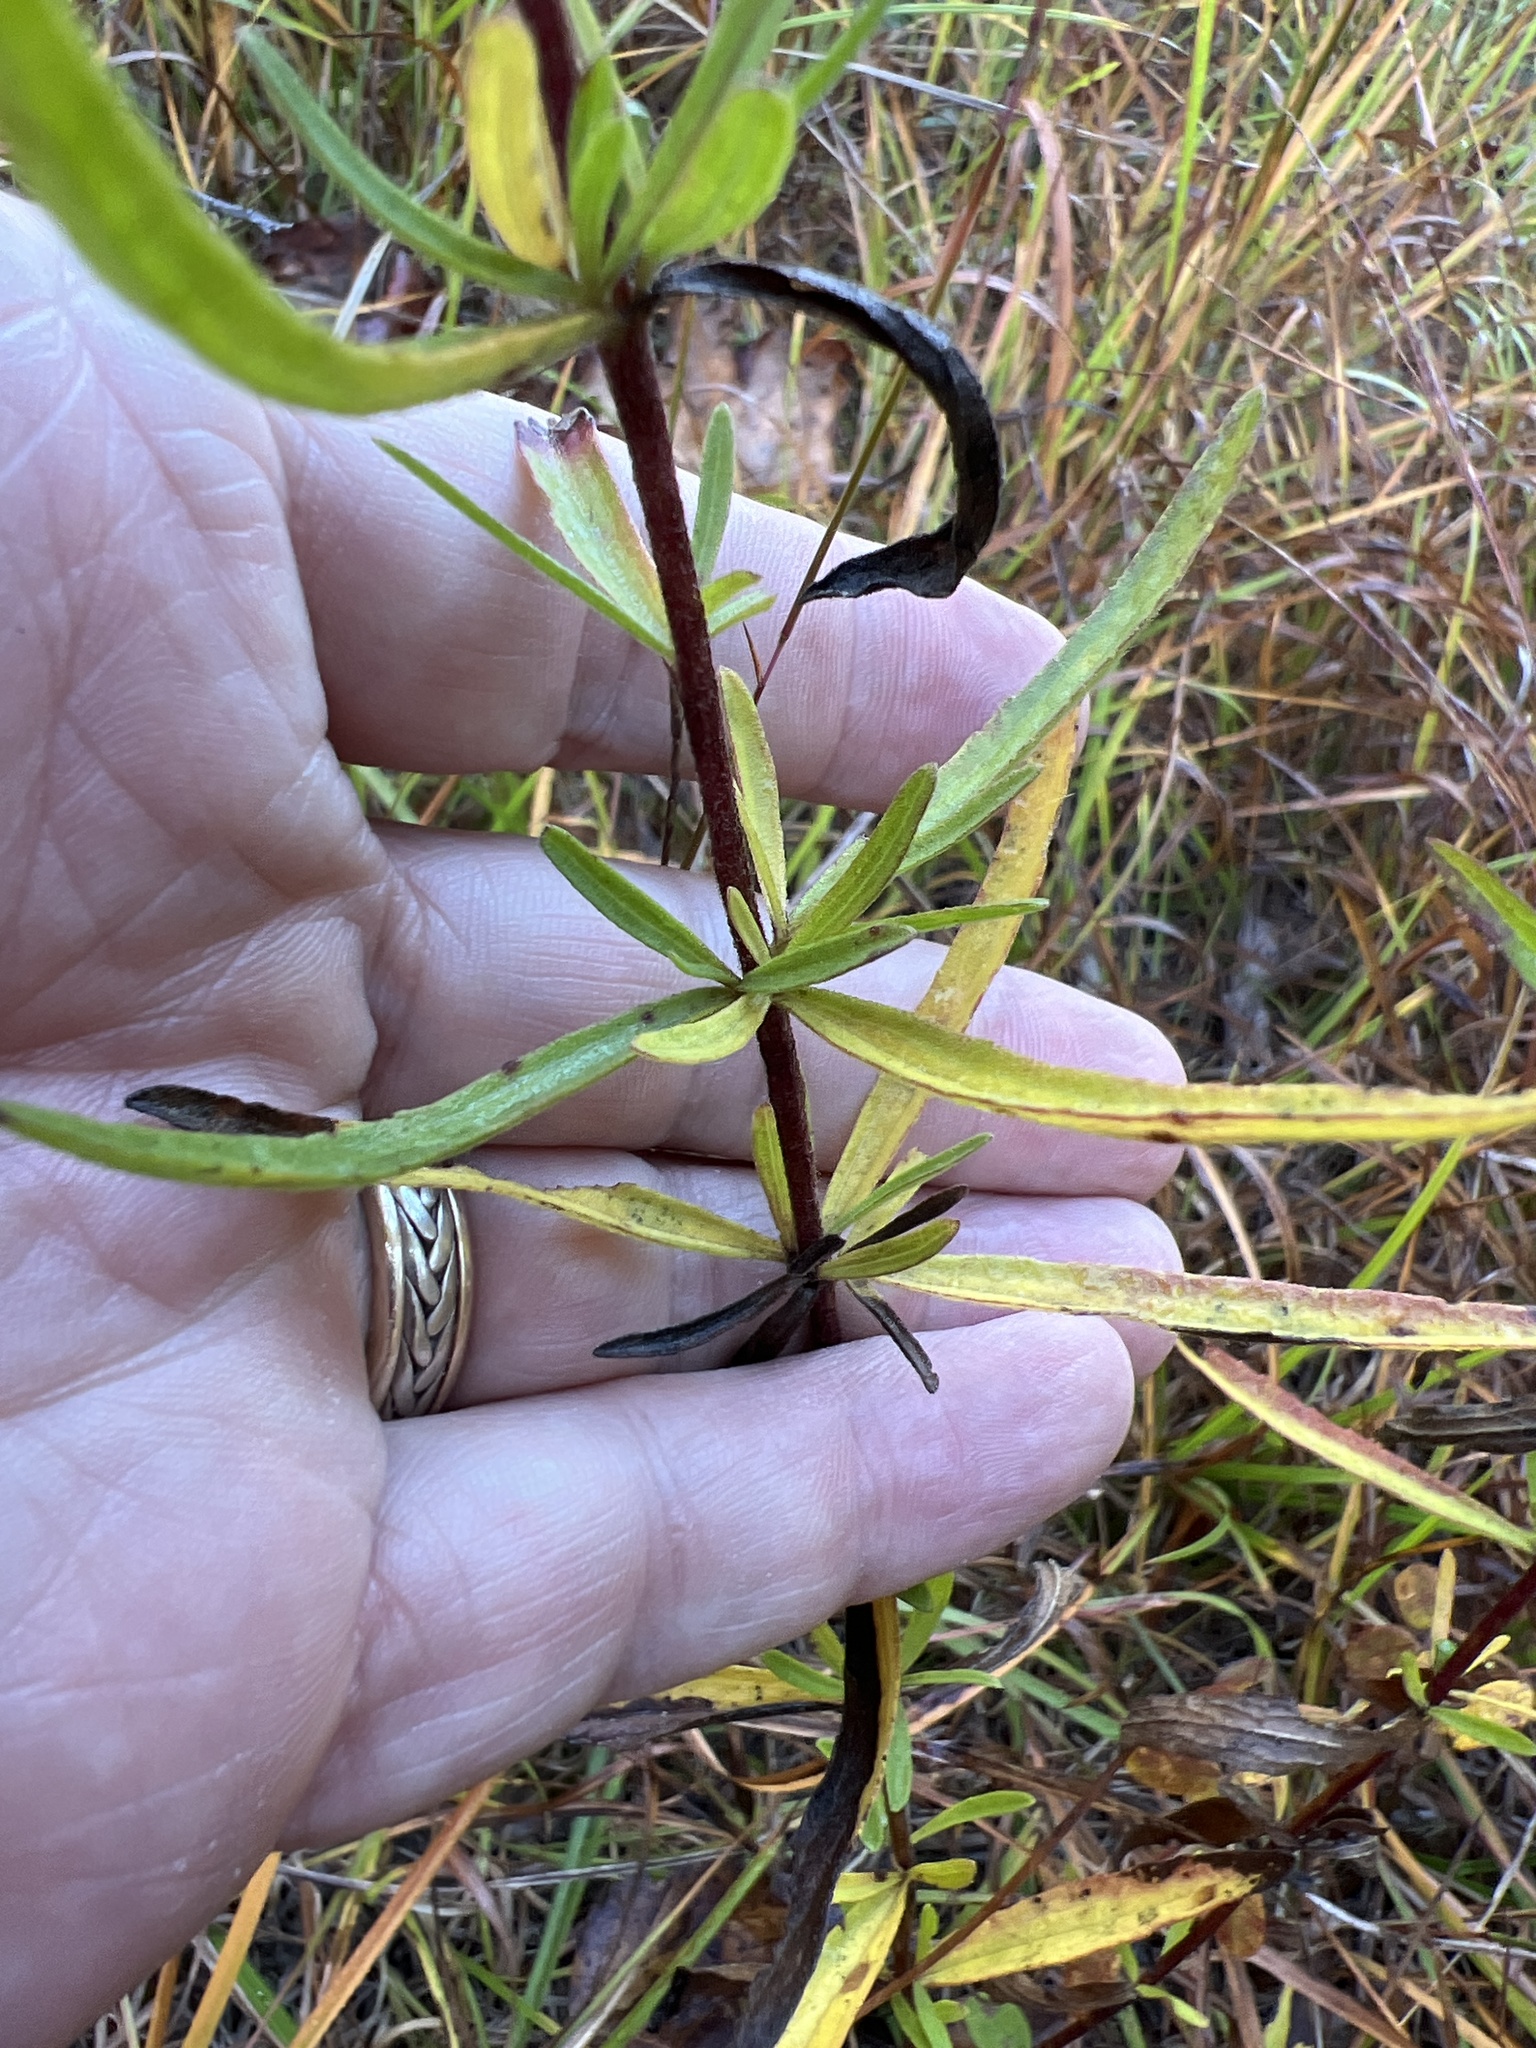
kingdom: Plantae
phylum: Tracheophyta
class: Magnoliopsida
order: Asterales
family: Asteraceae
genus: Eupatorium
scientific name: Eupatorium torreyanum
